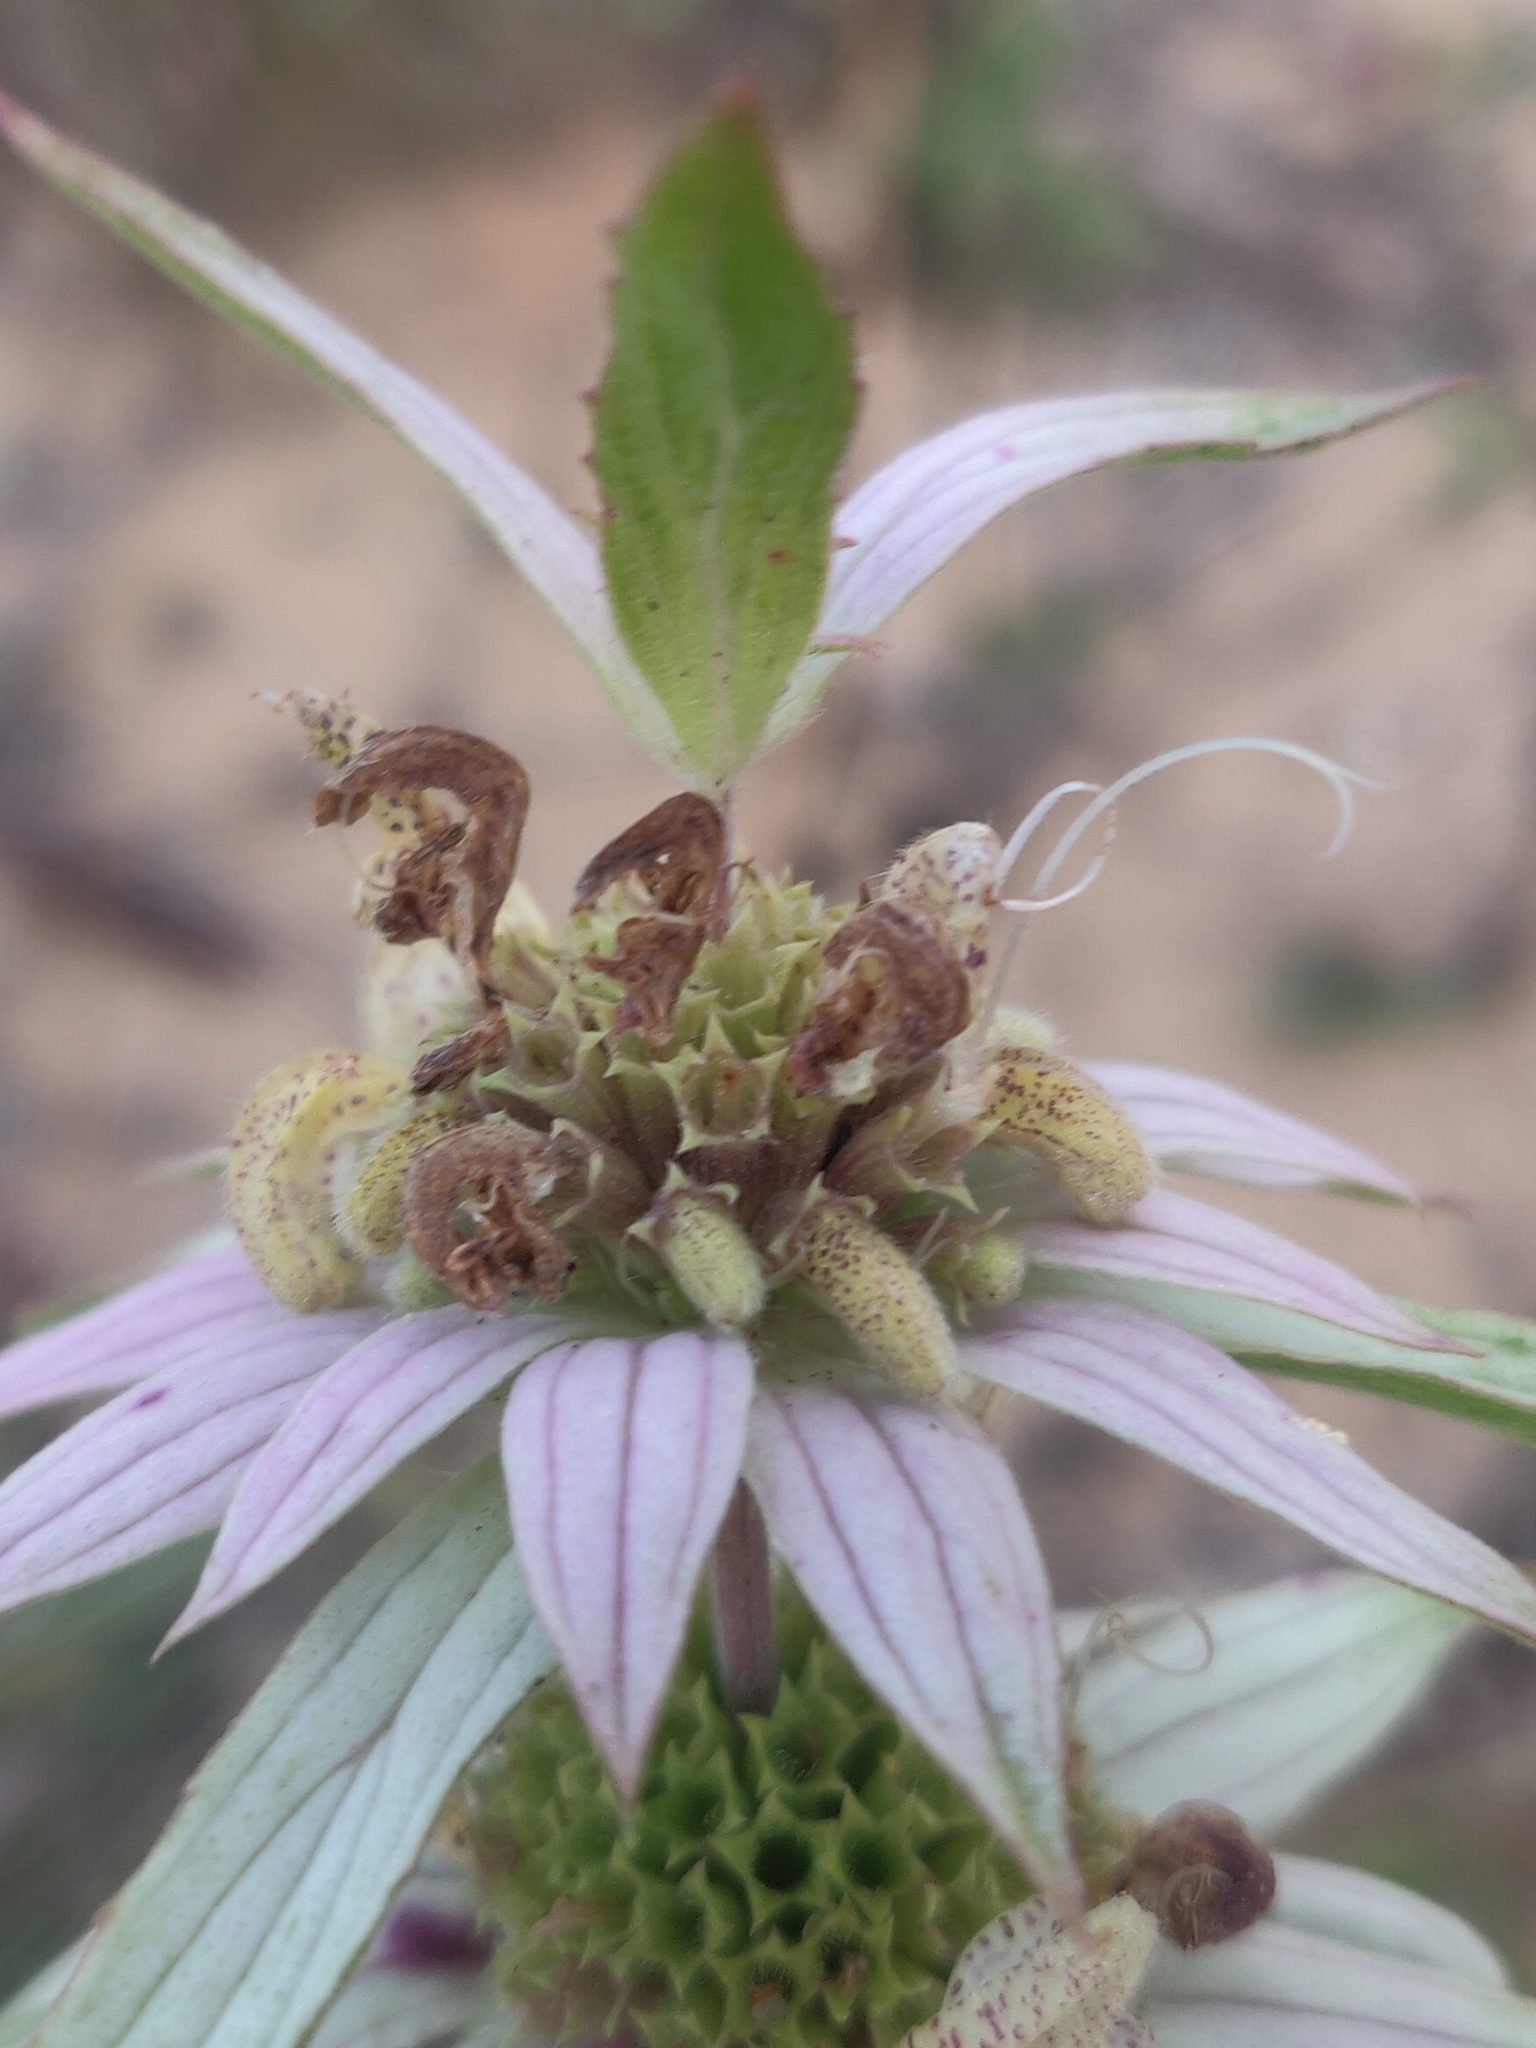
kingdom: Plantae
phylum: Tracheophyta
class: Magnoliopsida
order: Lamiales
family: Lamiaceae
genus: Monarda
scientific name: Monarda punctata
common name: Dotted monarda
